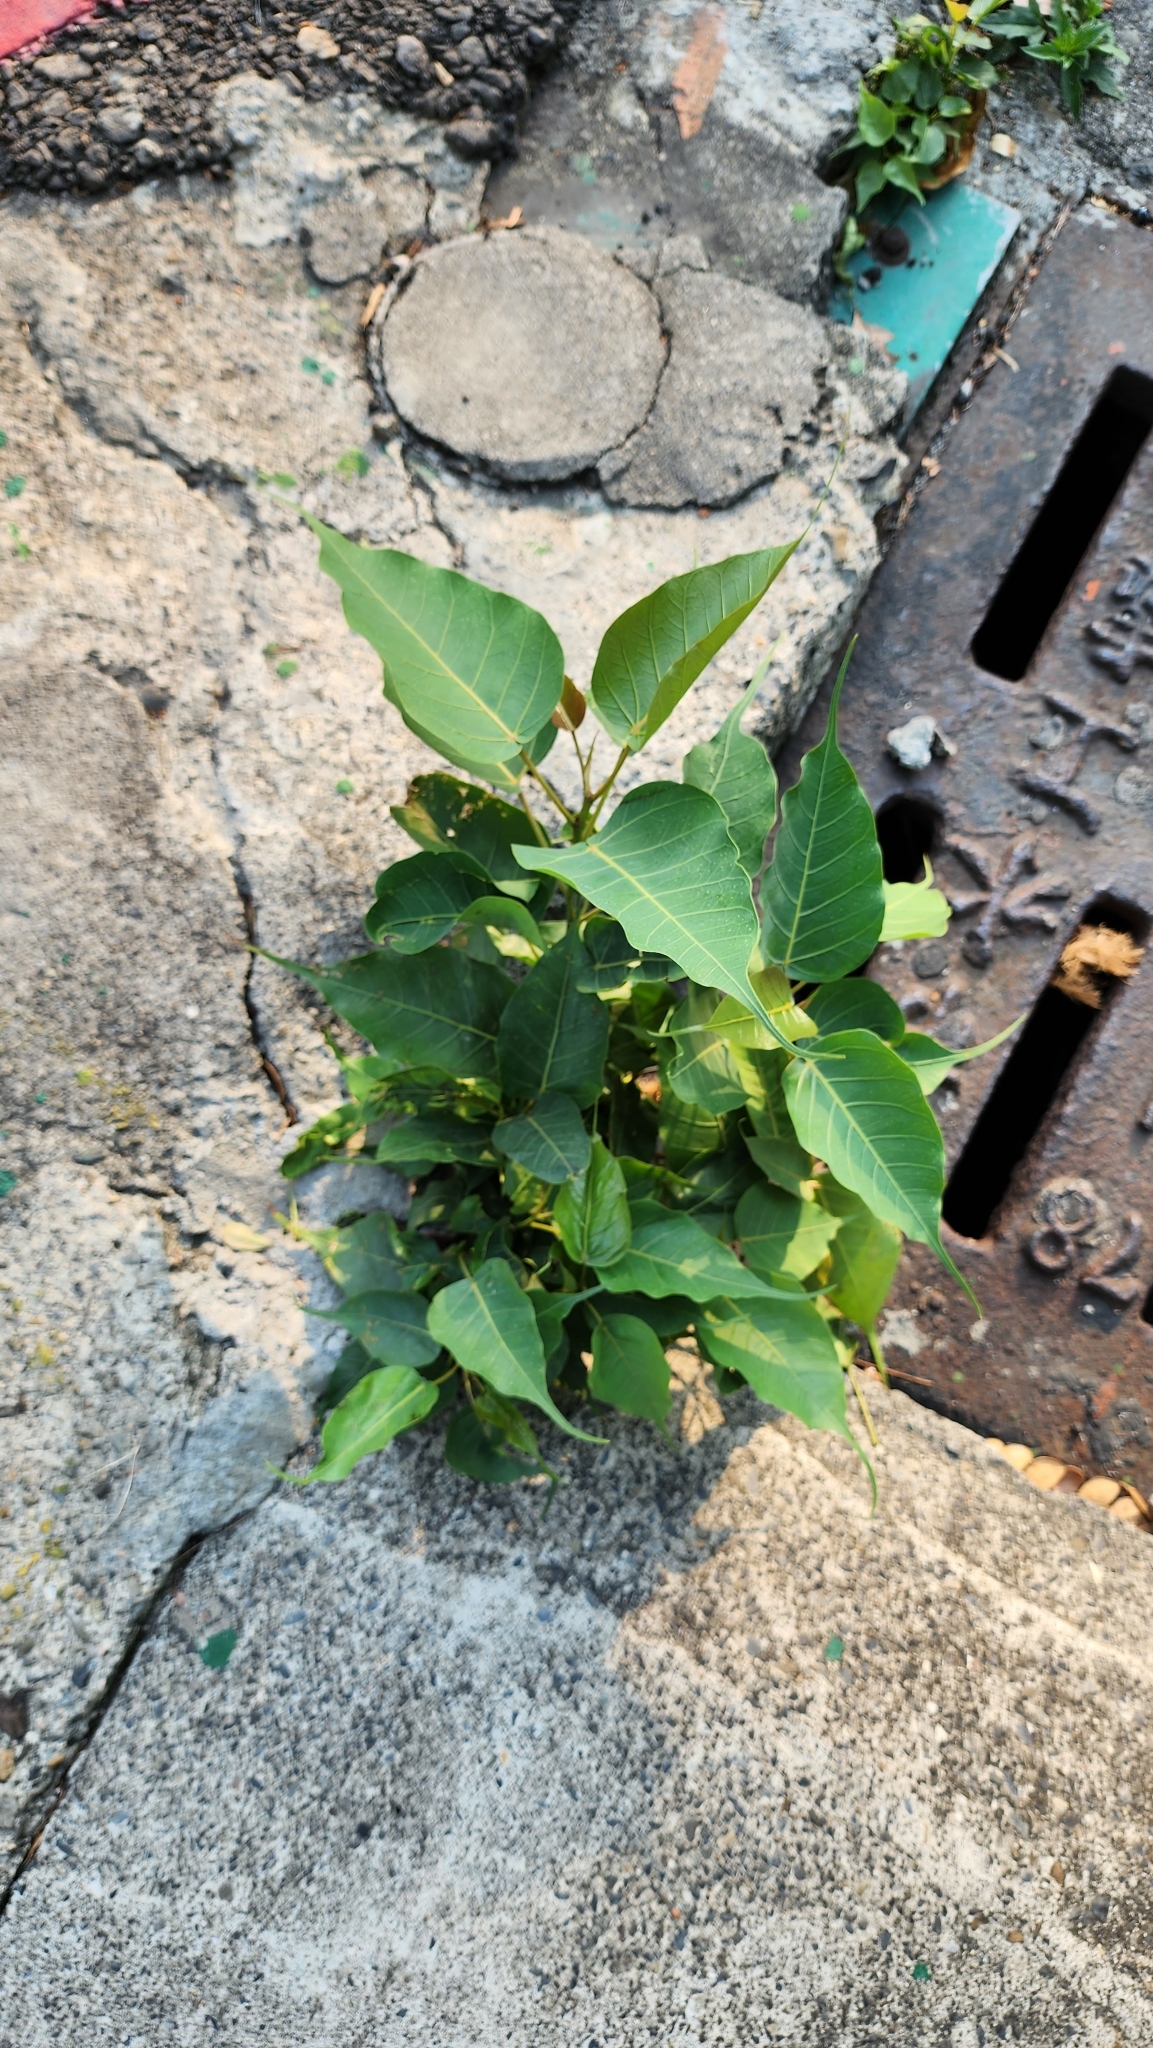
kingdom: Plantae
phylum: Tracheophyta
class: Magnoliopsida
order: Rosales
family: Moraceae
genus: Ficus
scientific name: Ficus religiosa
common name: Bodhi tree
